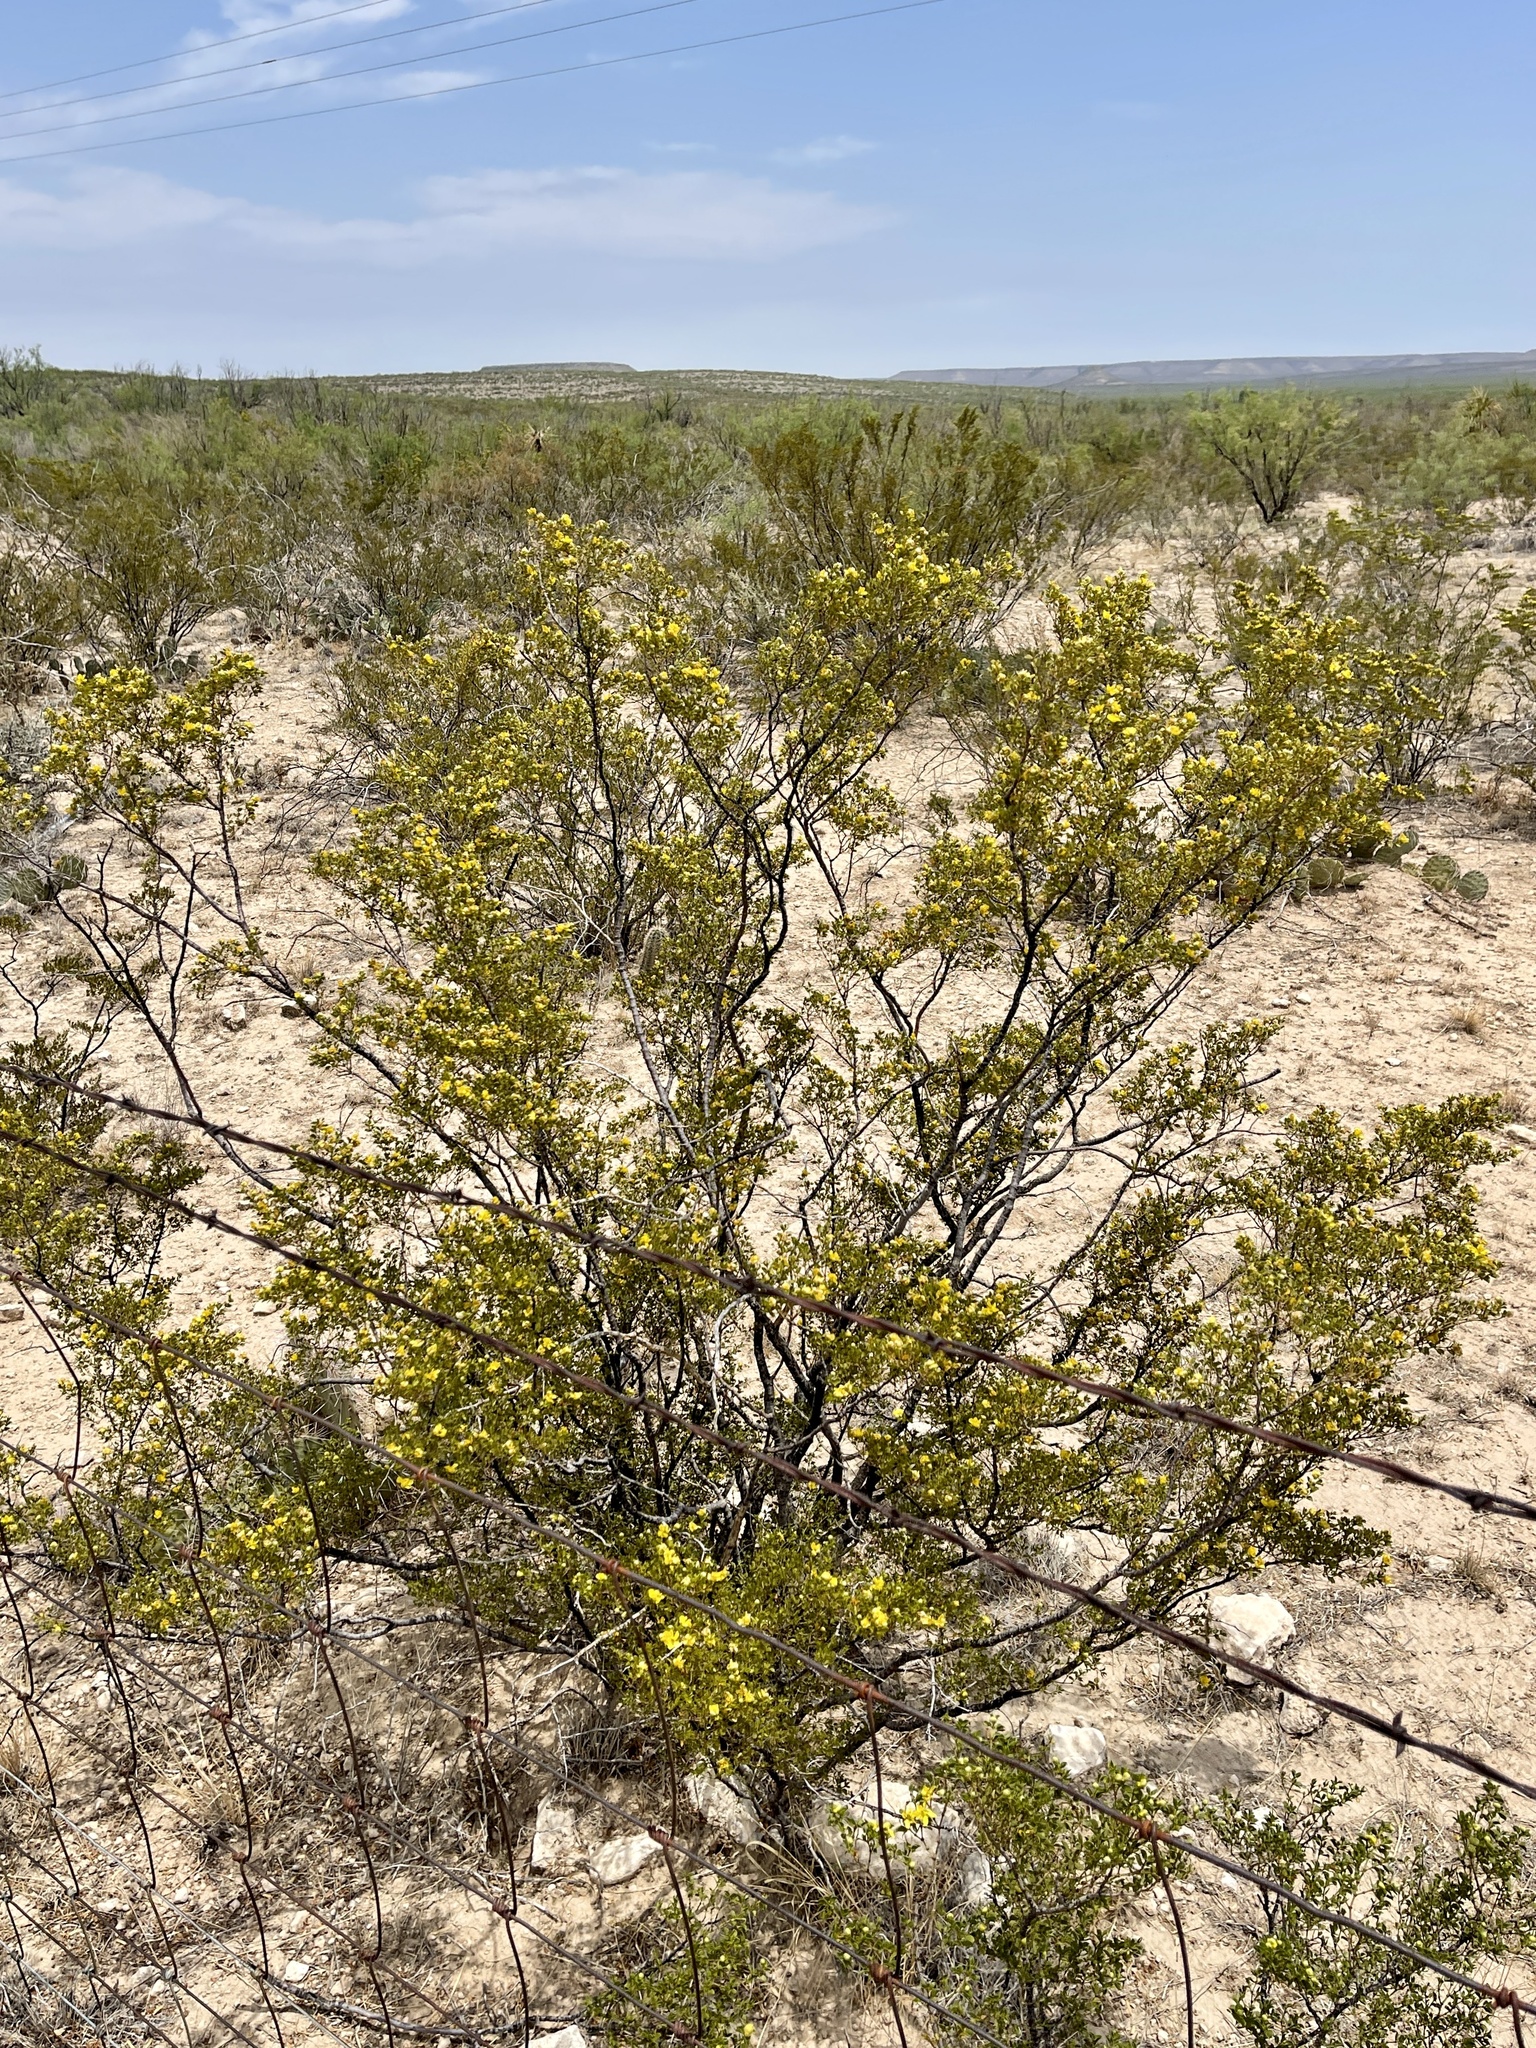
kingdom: Plantae
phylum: Tracheophyta
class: Magnoliopsida
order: Zygophyllales
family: Zygophyllaceae
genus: Larrea
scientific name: Larrea tridentata
